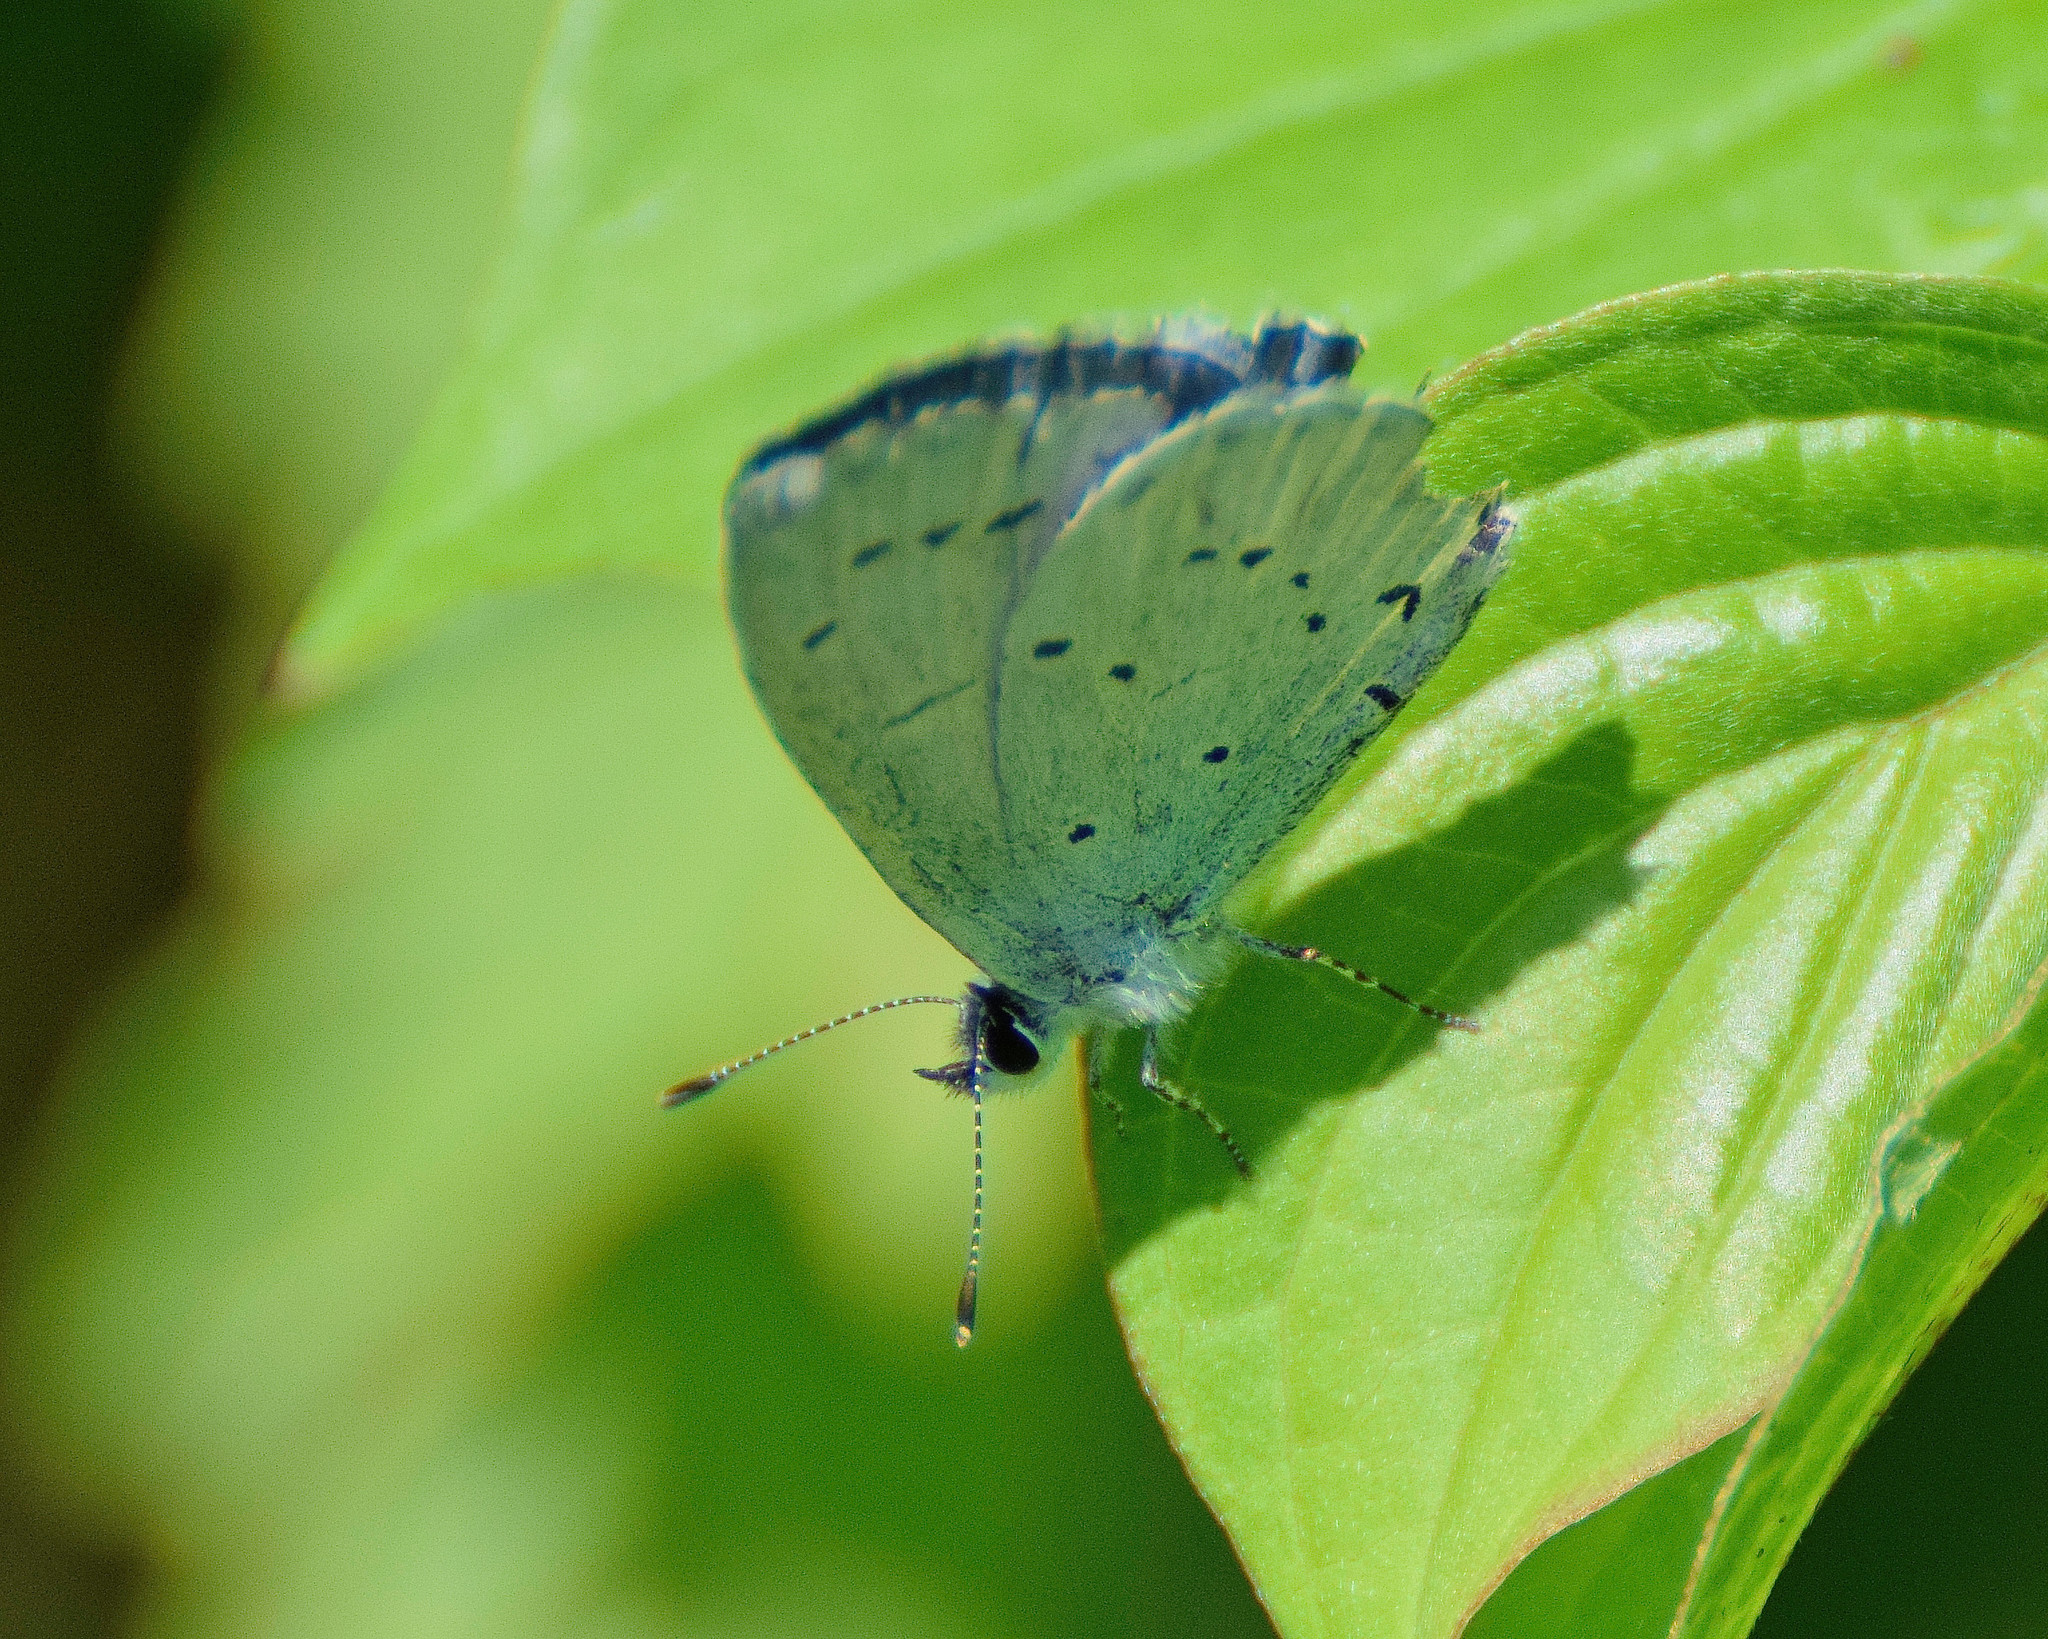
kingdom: Animalia
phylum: Arthropoda
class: Insecta
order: Lepidoptera
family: Lycaenidae
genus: Celastrina
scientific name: Celastrina argiolus
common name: Holly blue
